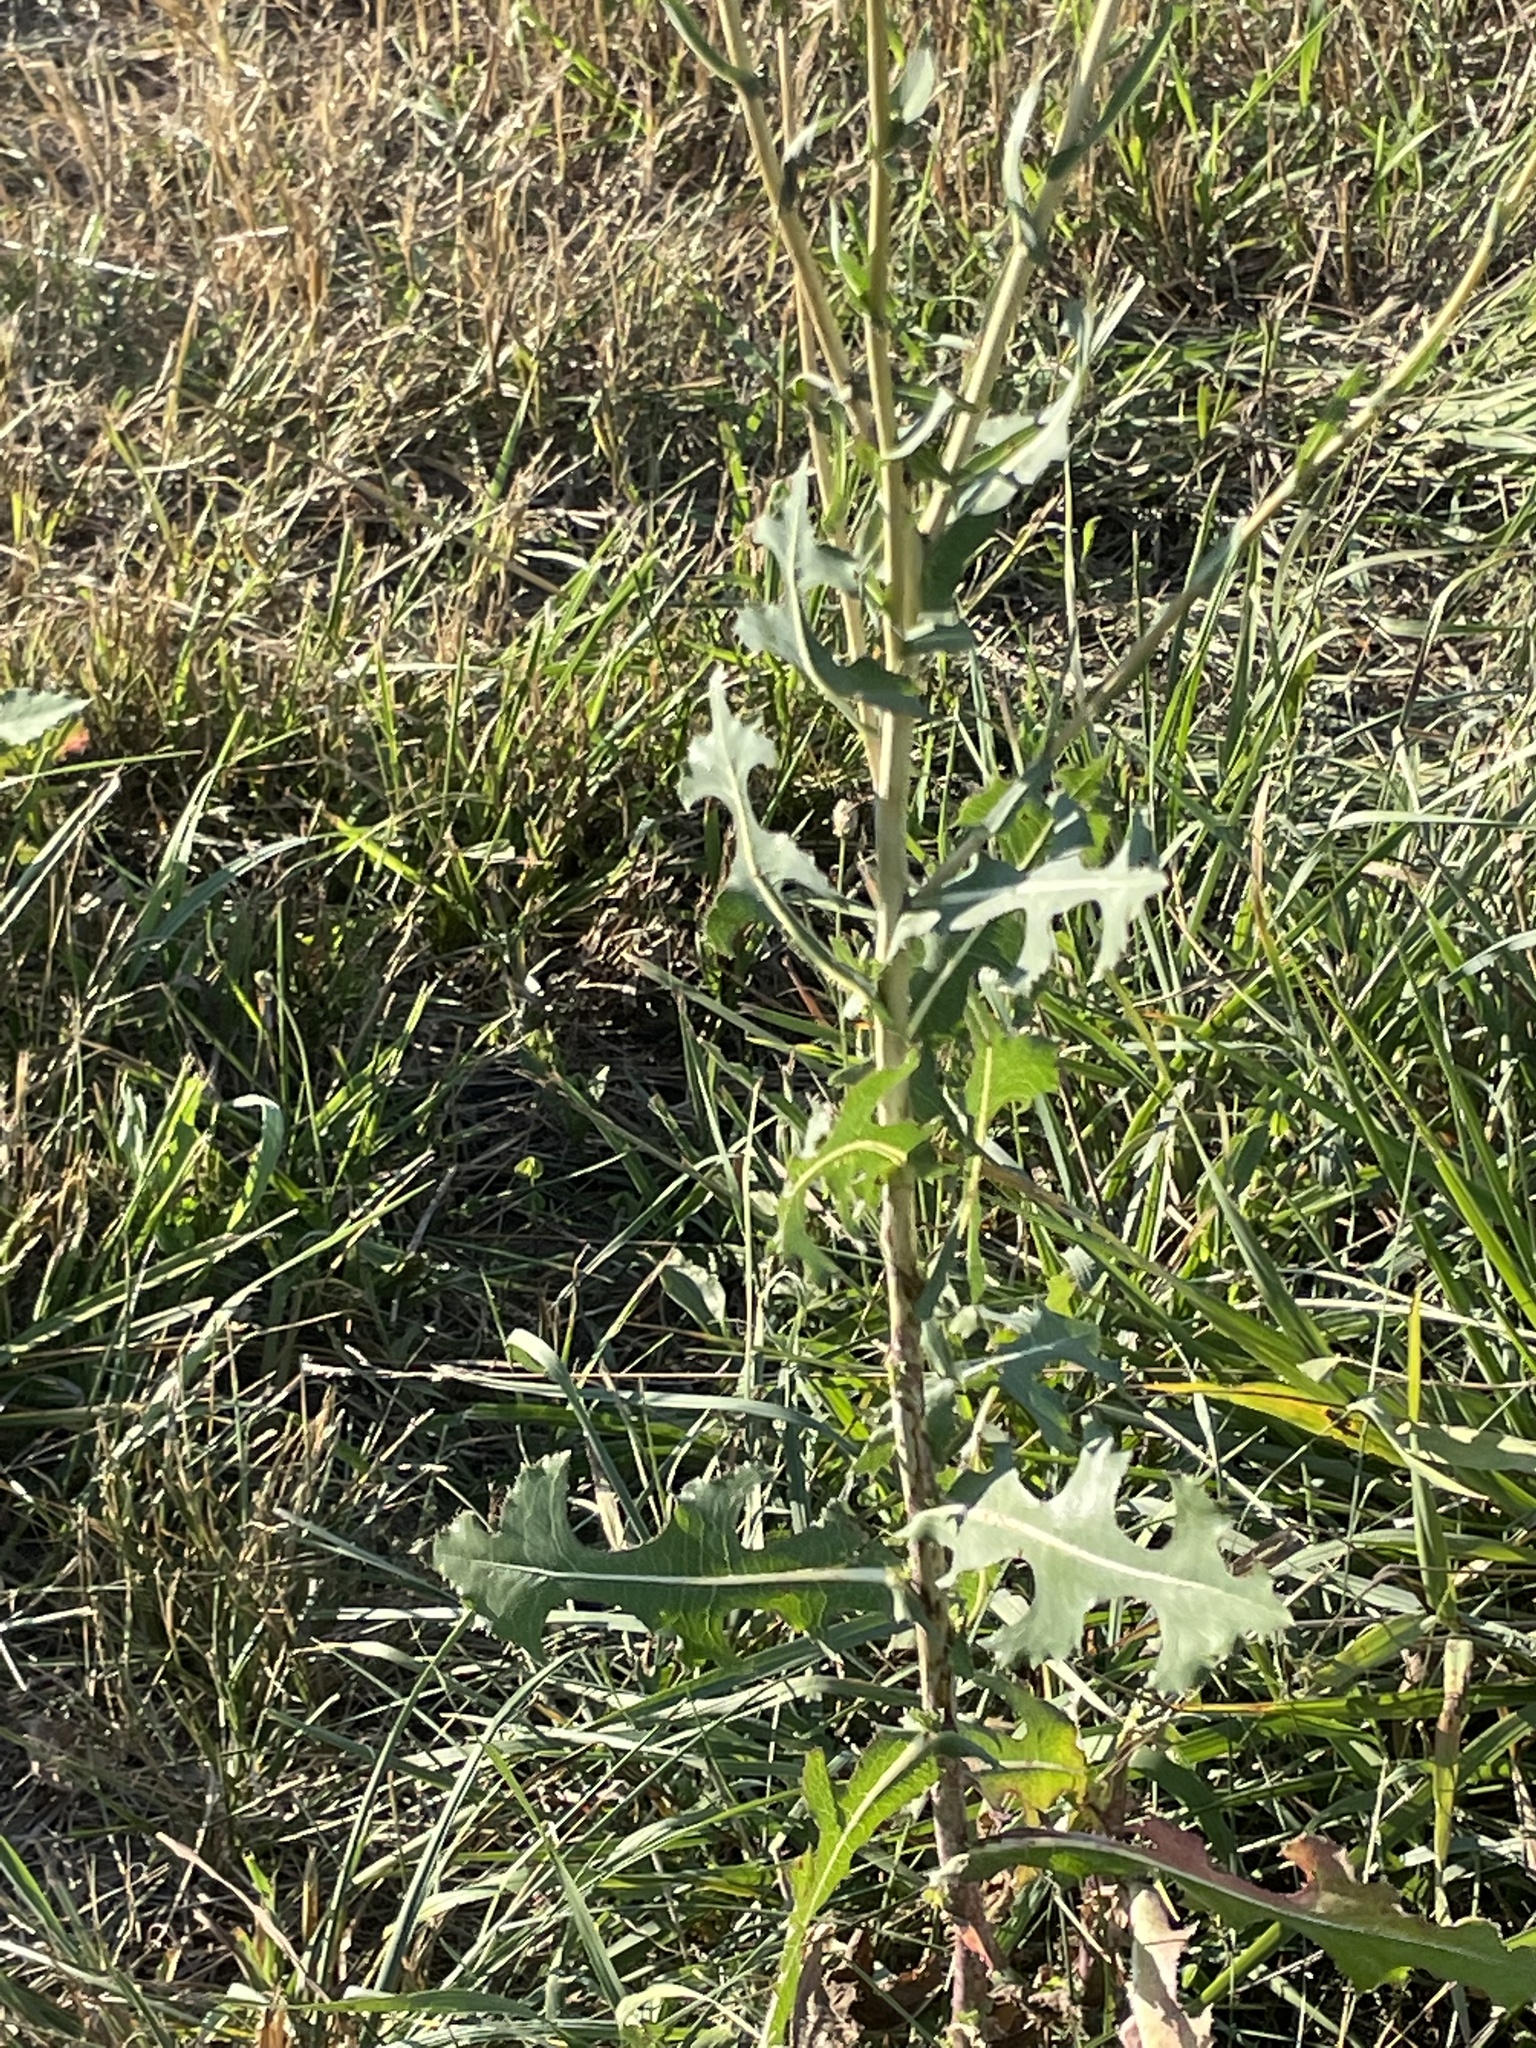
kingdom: Plantae
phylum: Tracheophyta
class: Magnoliopsida
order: Asterales
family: Asteraceae
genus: Lactuca
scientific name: Lactuca serriola
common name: Prickly lettuce
